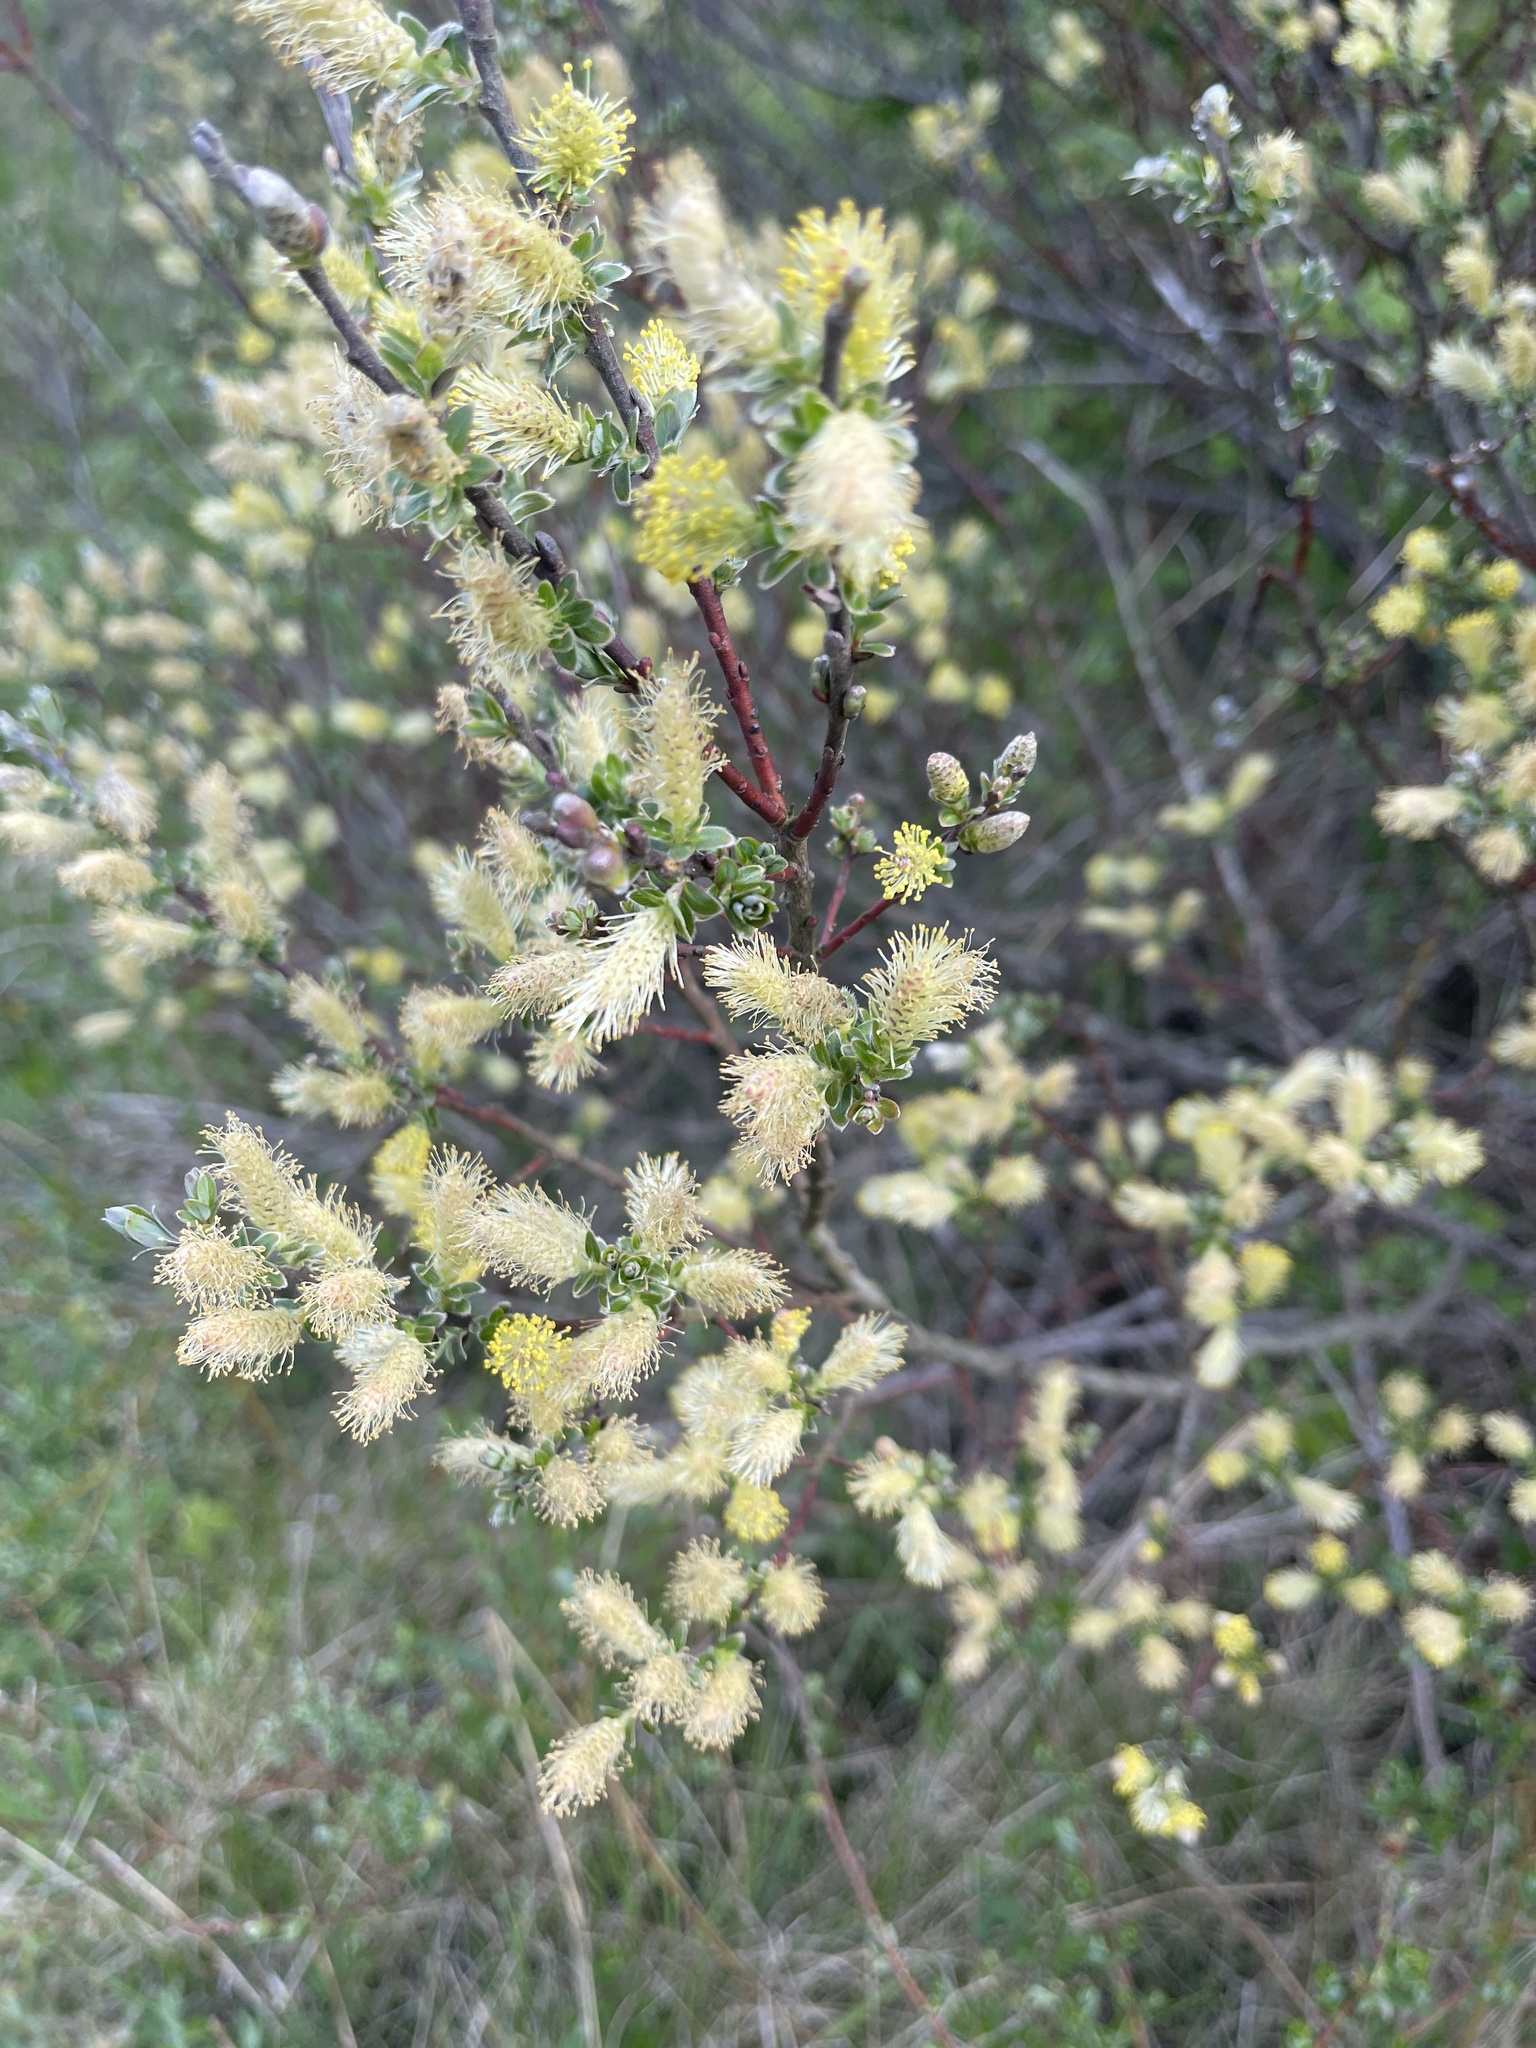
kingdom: Plantae
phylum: Tracheophyta
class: Magnoliopsida
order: Malpighiales
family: Salicaceae
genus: Salix
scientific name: Salix repens
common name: Creeping willow
